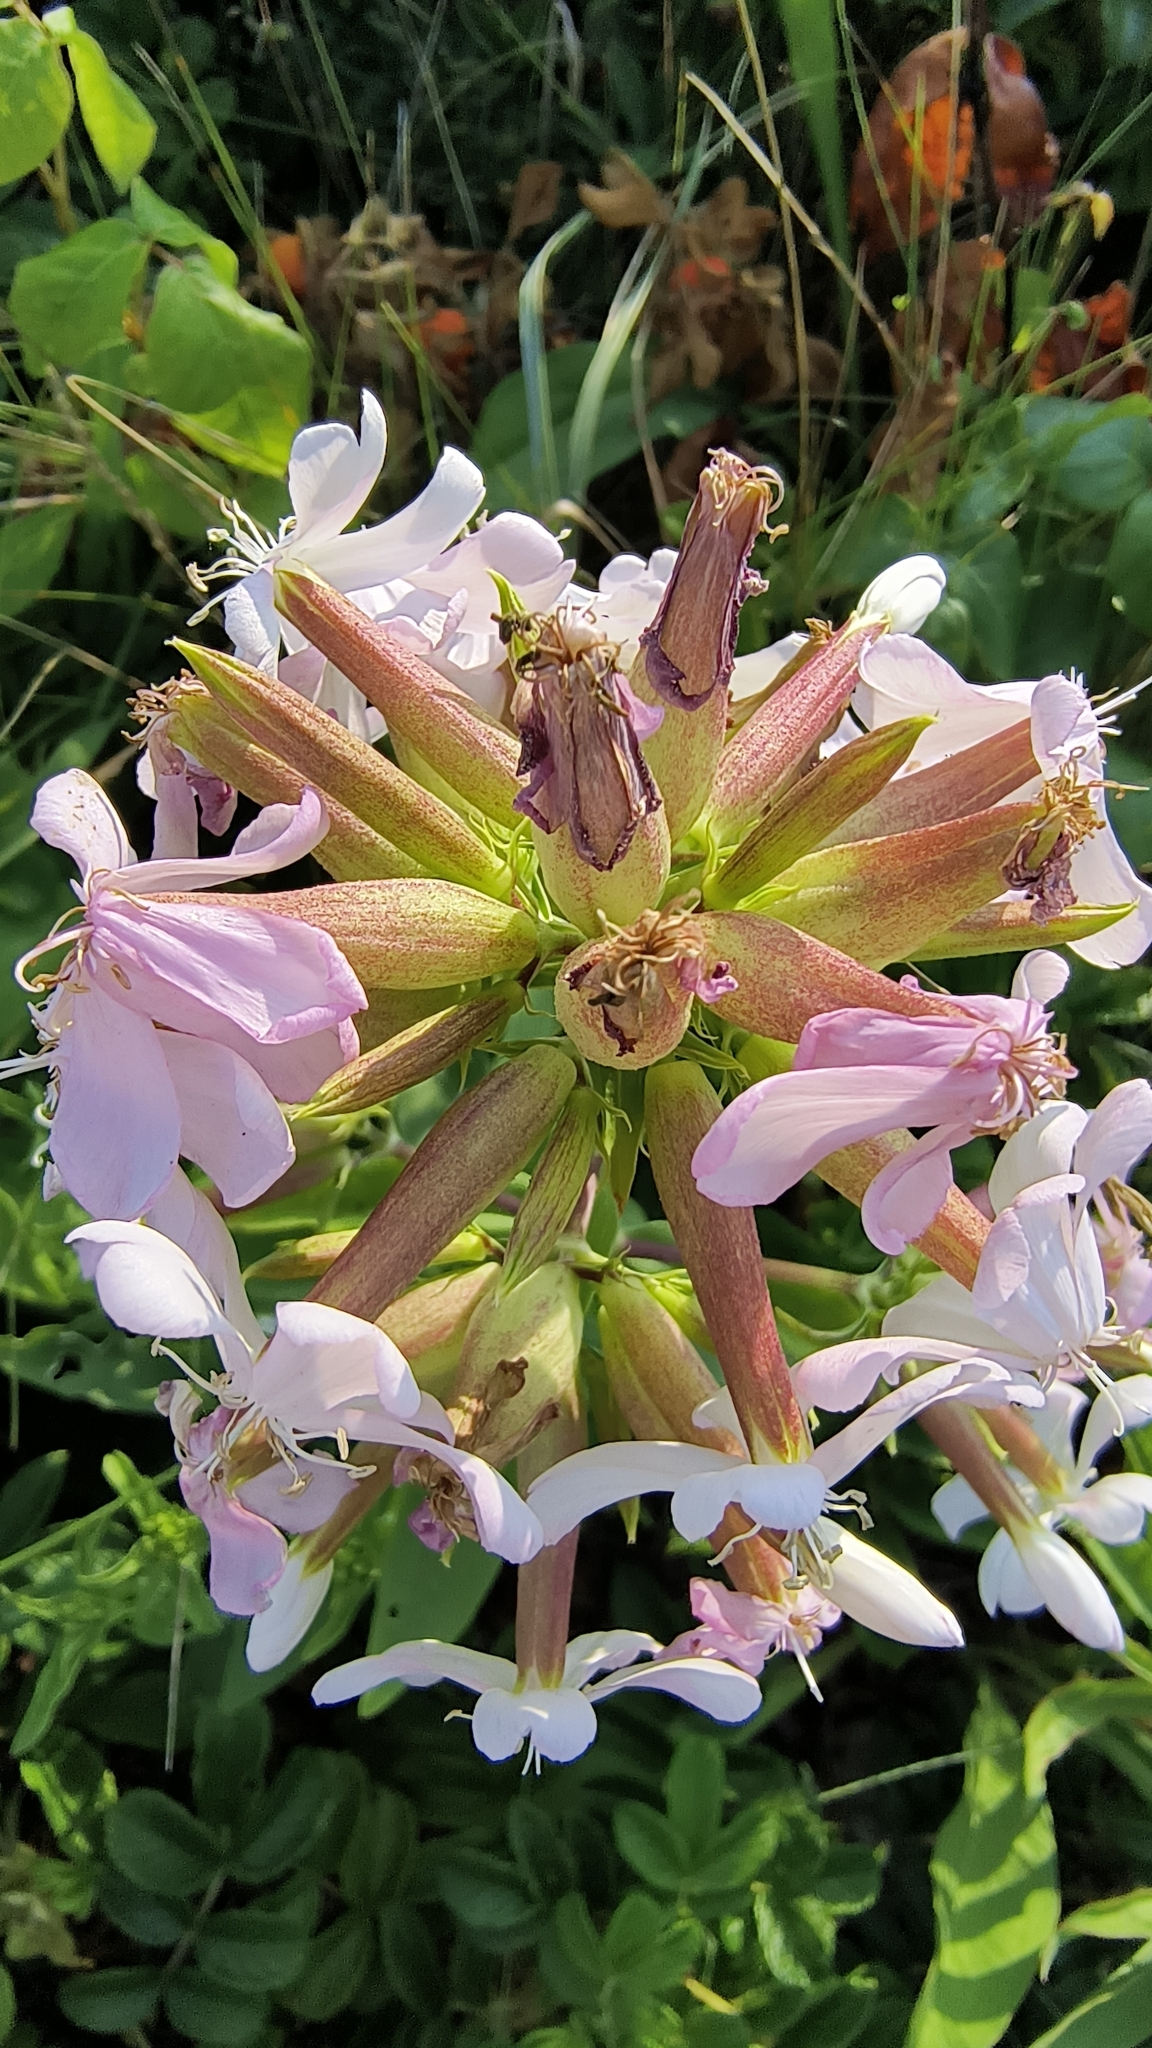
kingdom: Plantae
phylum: Tracheophyta
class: Magnoliopsida
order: Caryophyllales
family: Caryophyllaceae
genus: Saponaria
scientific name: Saponaria officinalis
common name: Soapwort
